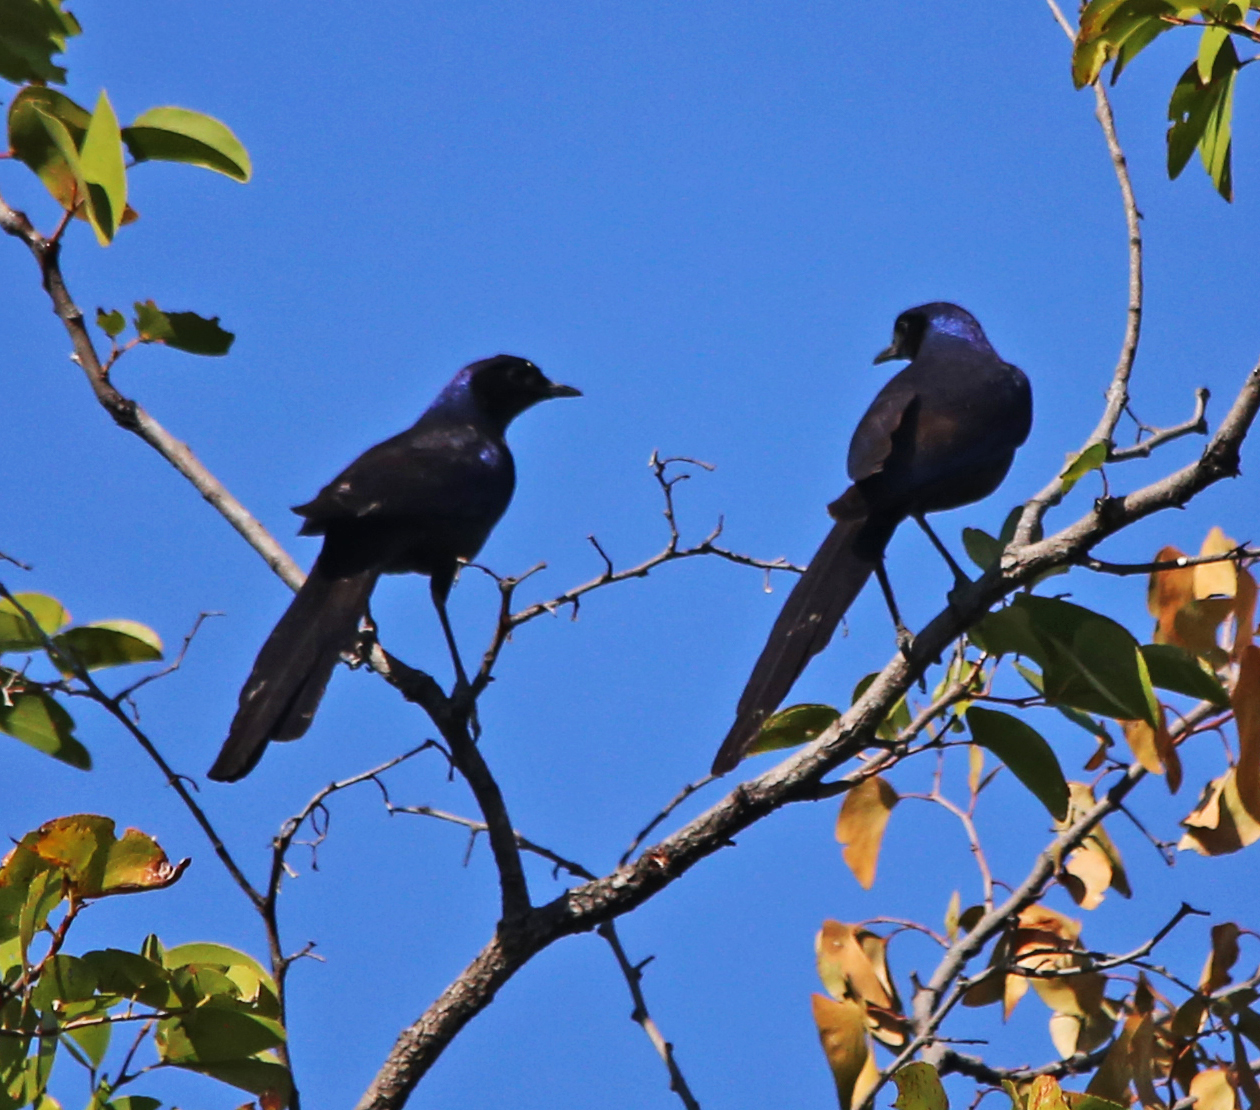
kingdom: Animalia
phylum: Chordata
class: Aves
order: Passeriformes
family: Sturnidae
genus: Lamprotornis
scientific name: Lamprotornis mevesii
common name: Meves's starling
